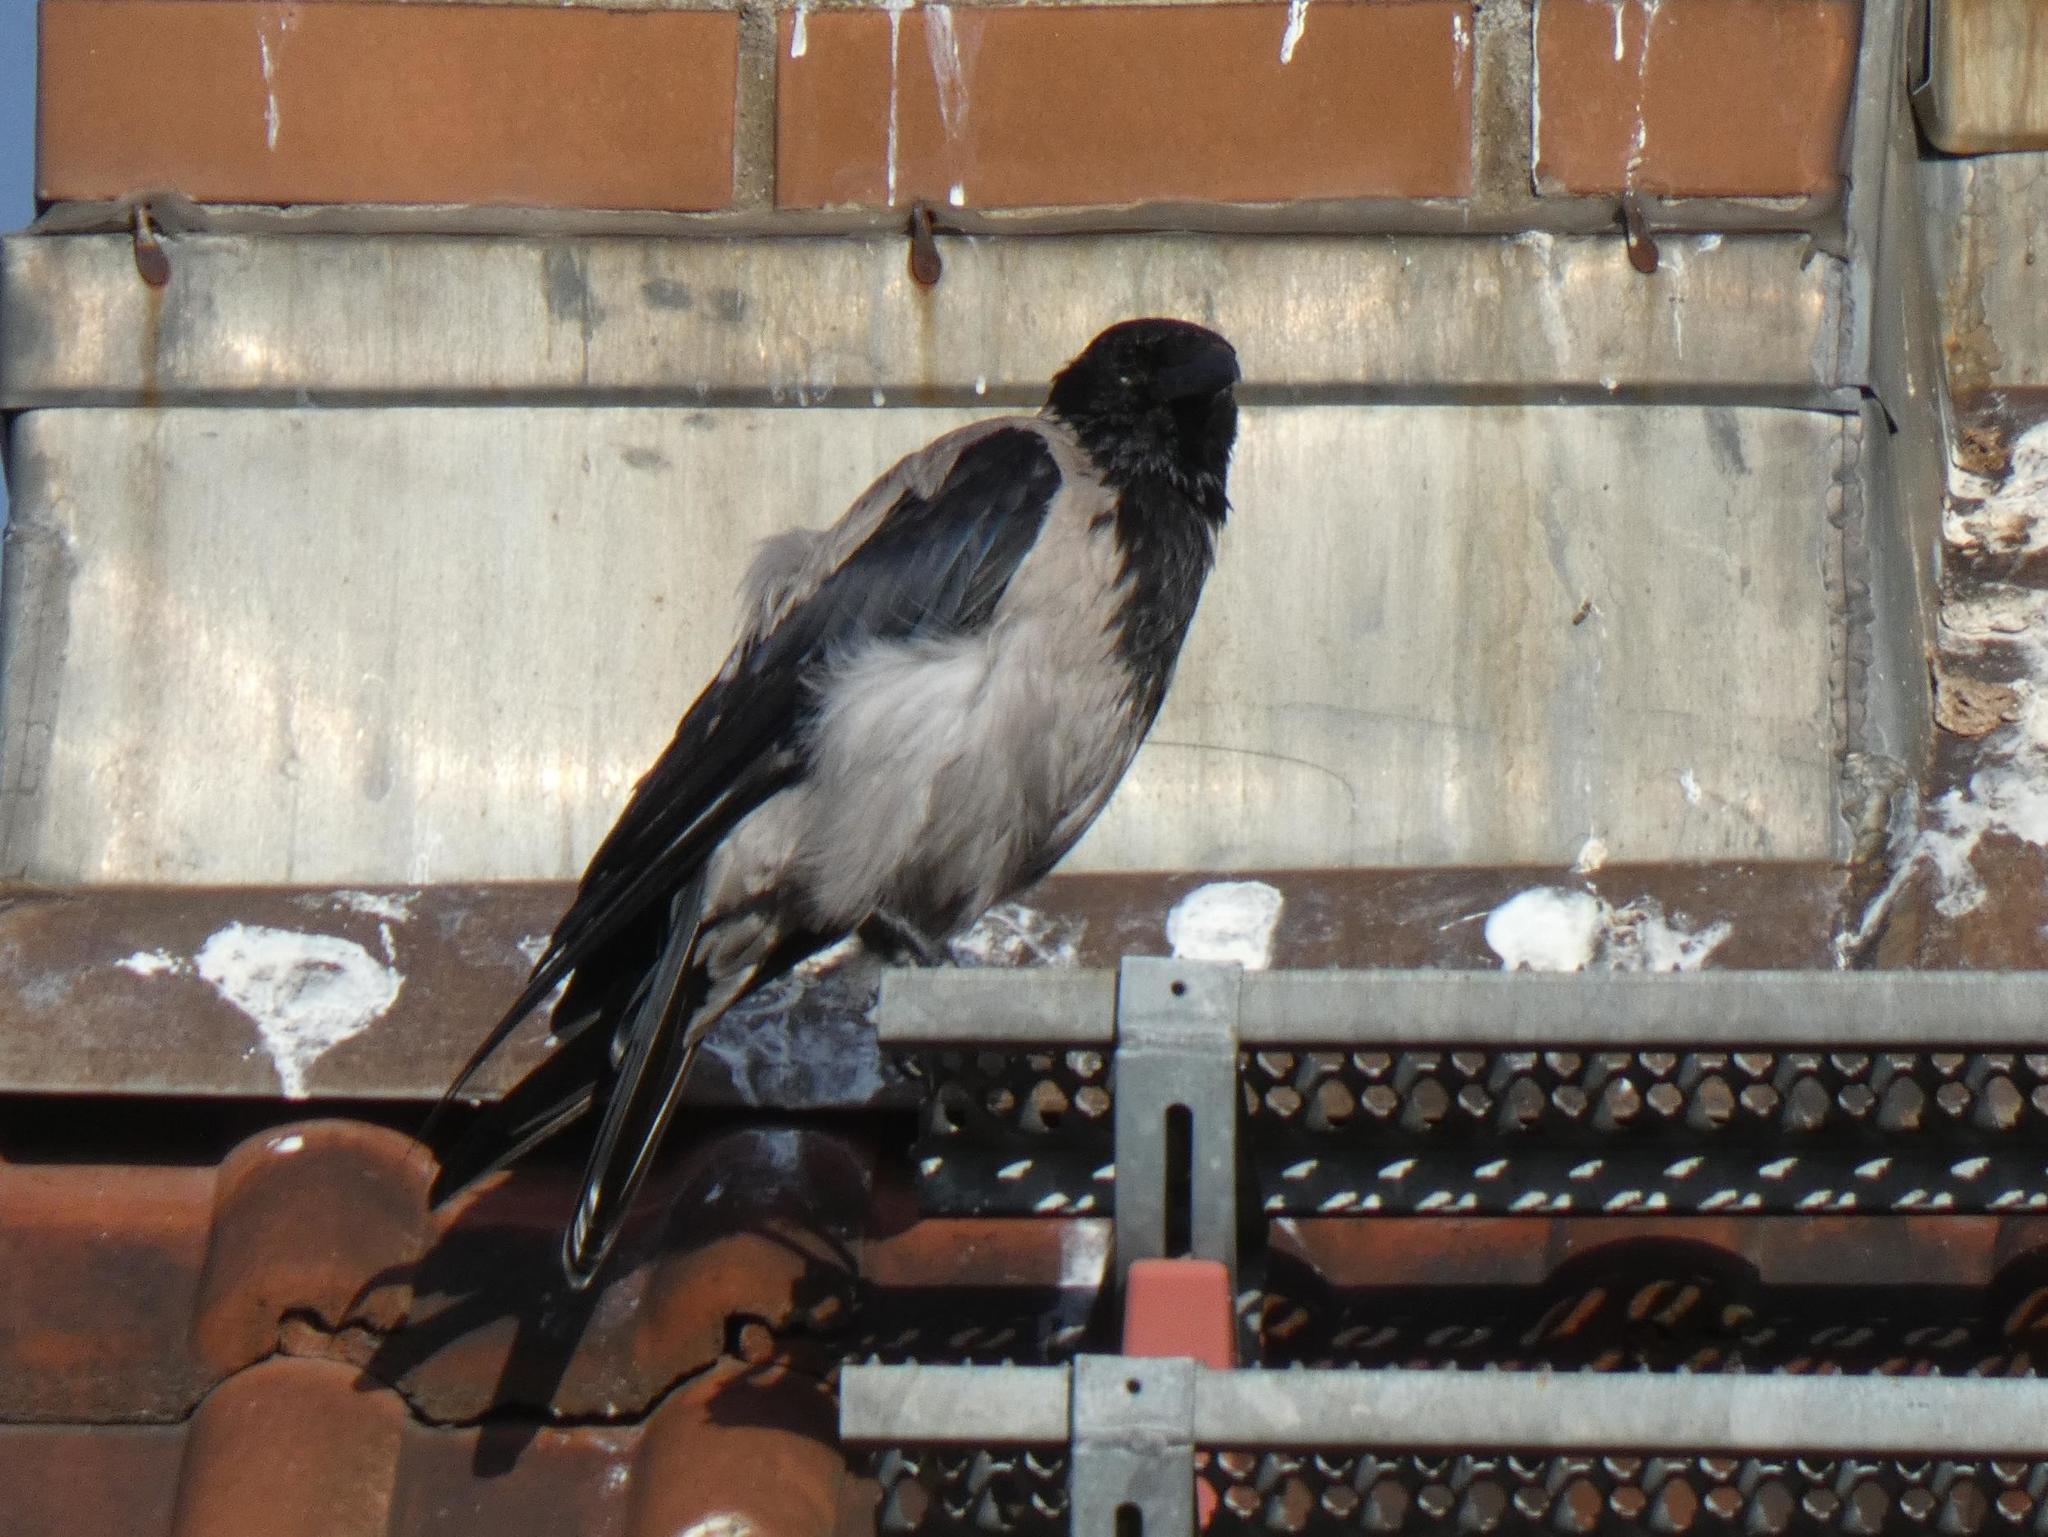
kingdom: Animalia
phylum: Chordata
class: Aves
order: Passeriformes
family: Corvidae
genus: Corvus
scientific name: Corvus cornix
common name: Hooded crow
